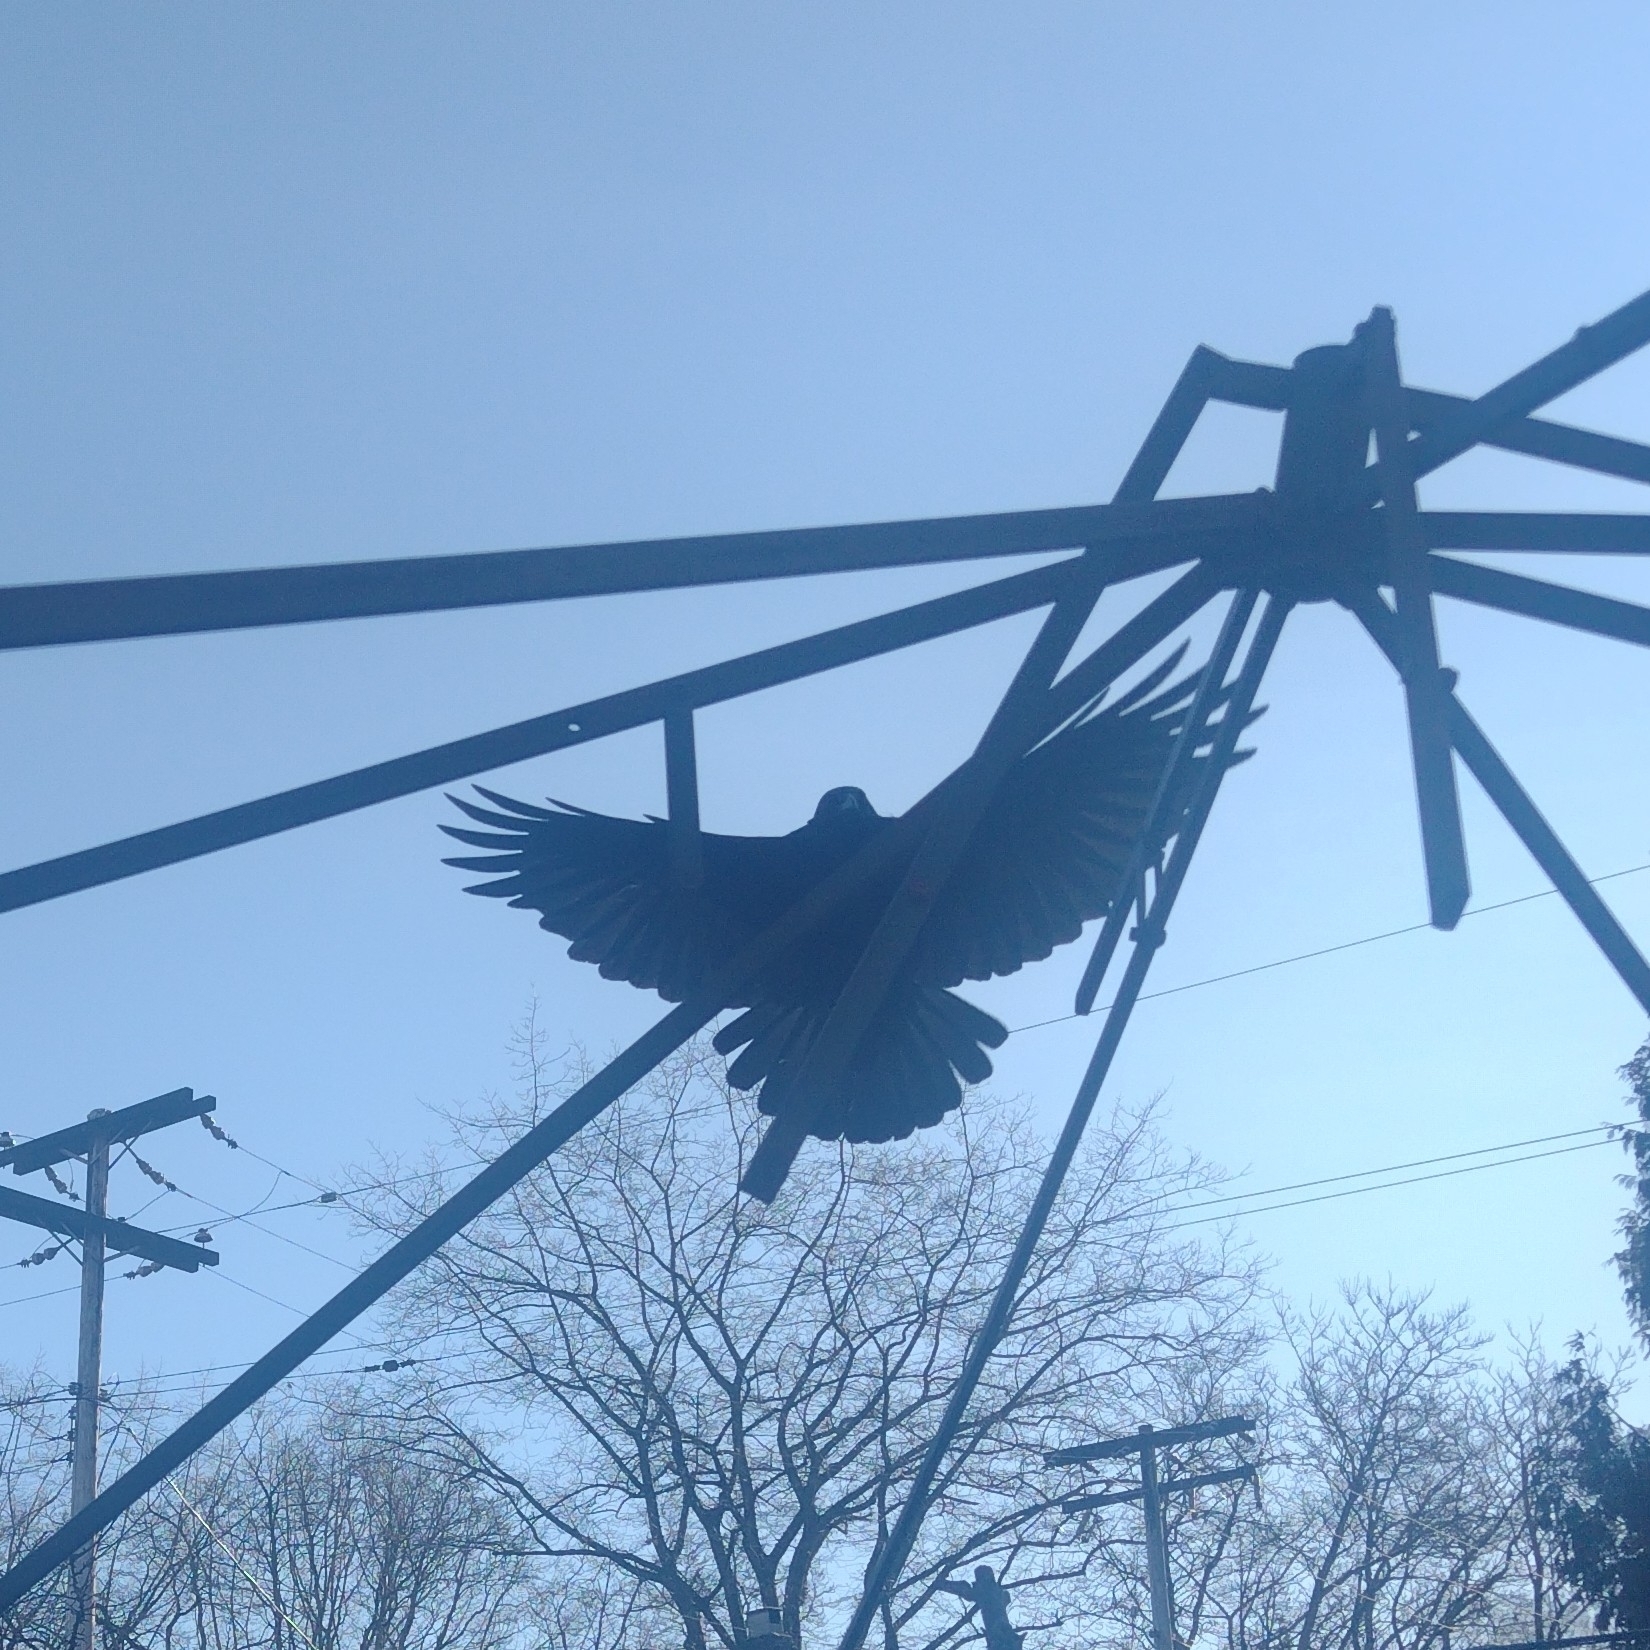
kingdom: Animalia
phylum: Chordata
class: Aves
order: Passeriformes
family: Corvidae
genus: Corvus
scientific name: Corvus brachyrhynchos
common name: American crow
